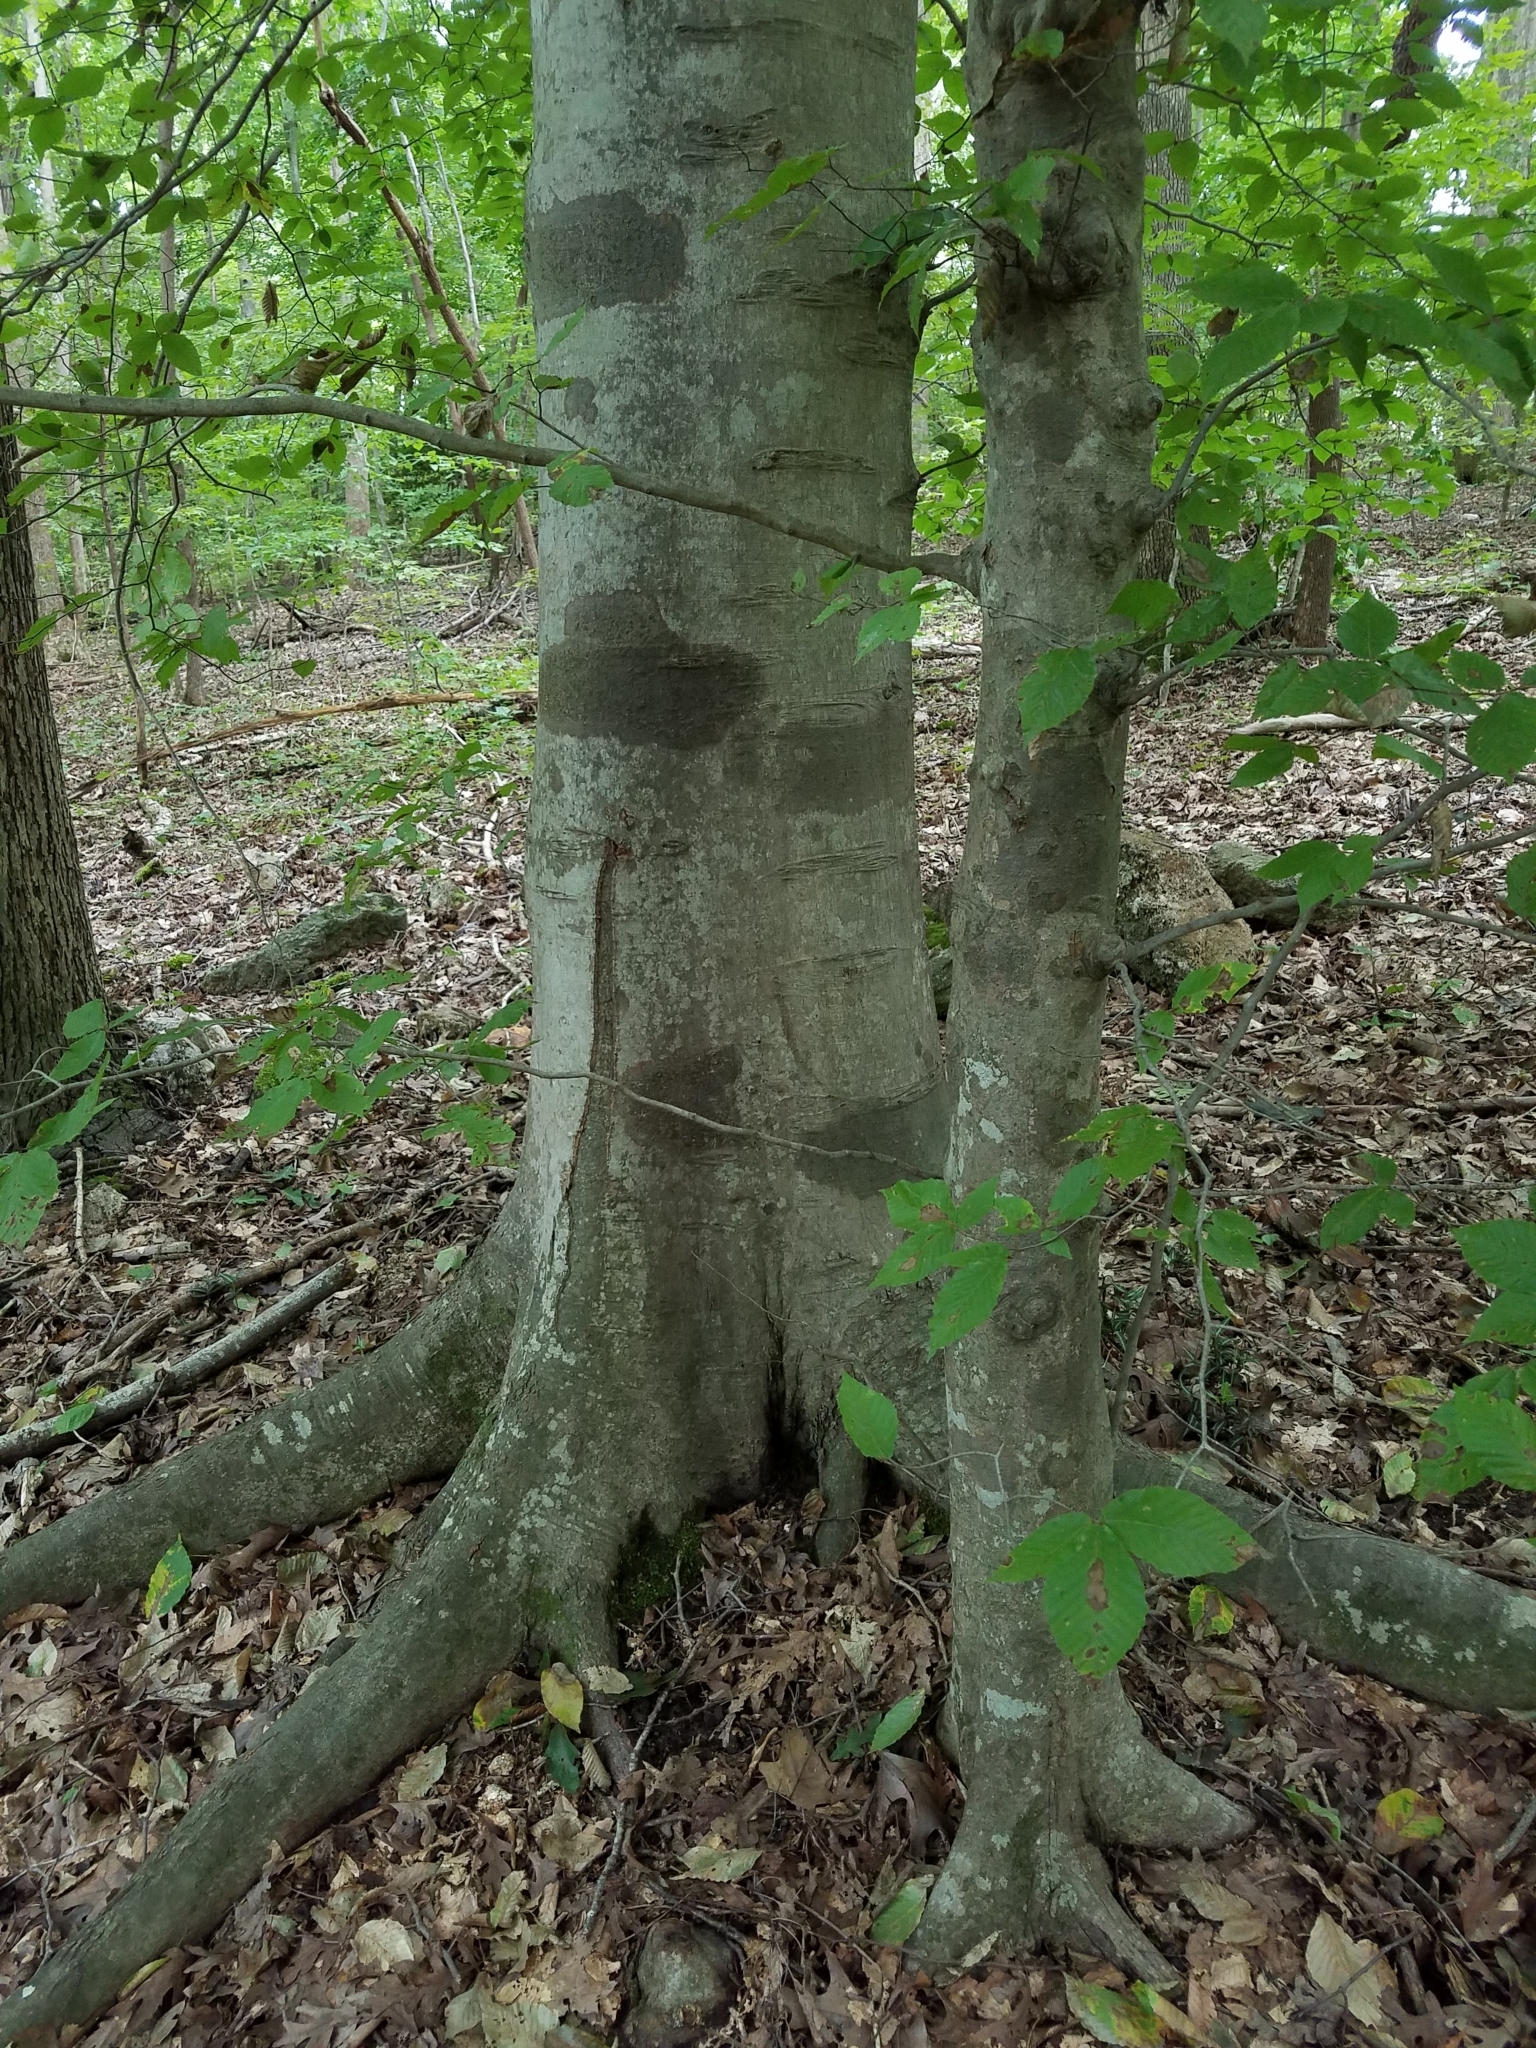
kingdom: Plantae
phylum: Tracheophyta
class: Magnoliopsida
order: Fagales
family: Fagaceae
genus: Fagus
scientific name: Fagus grandifolia
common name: American beech
